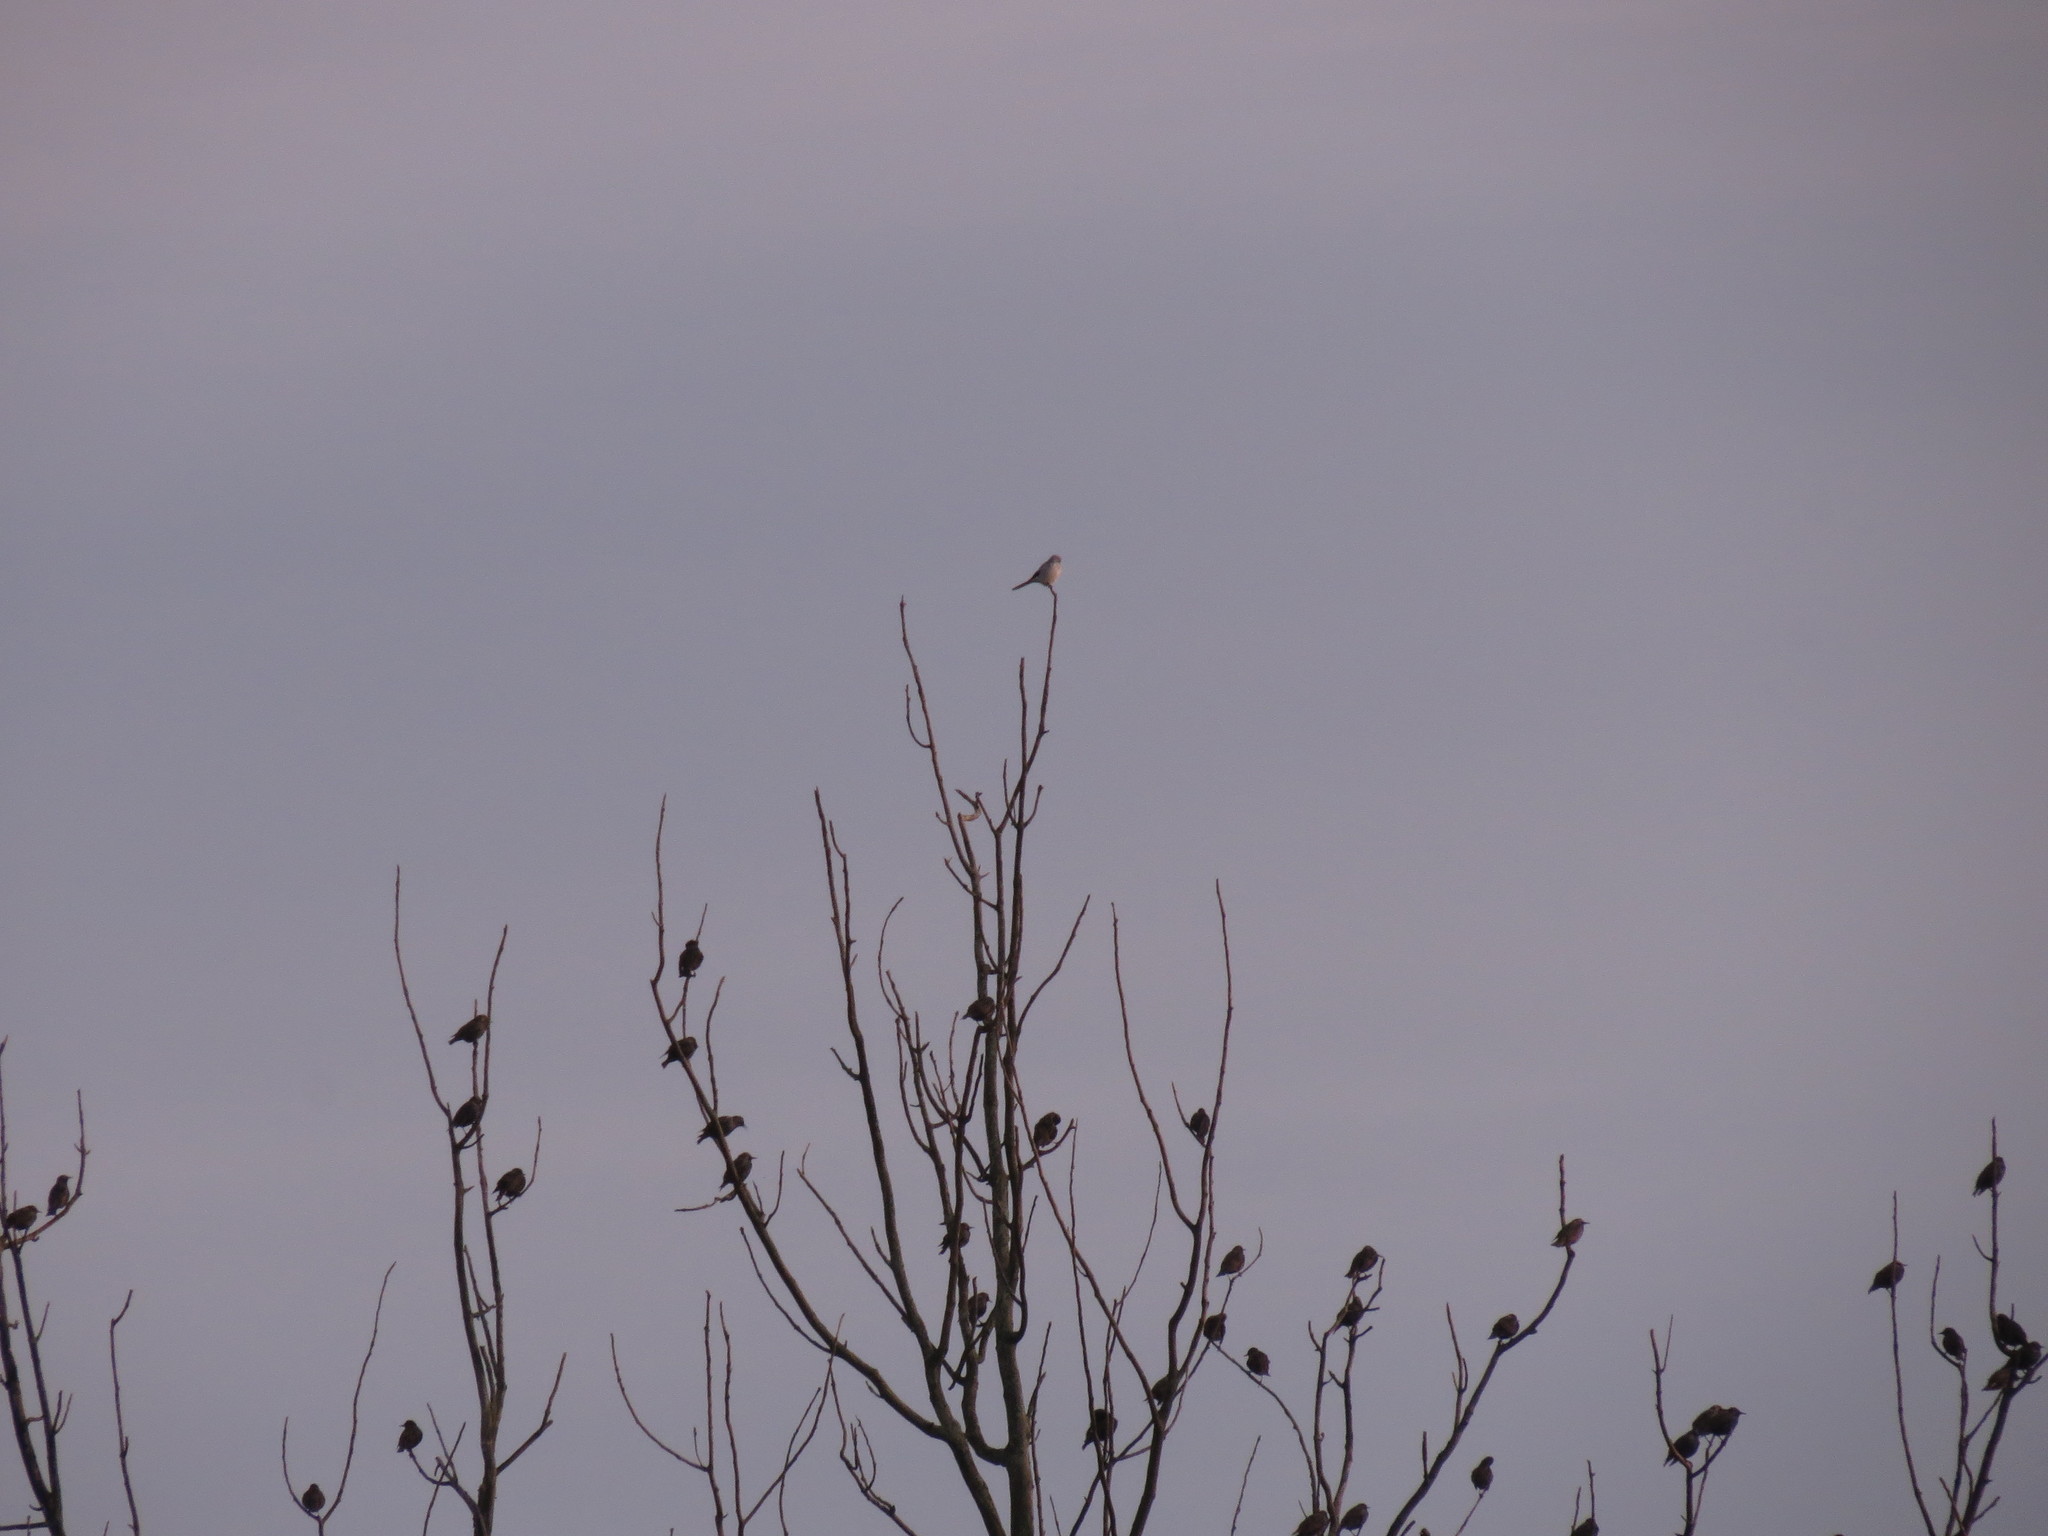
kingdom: Animalia
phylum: Chordata
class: Aves
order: Passeriformes
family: Laniidae
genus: Lanius
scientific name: Lanius borealis
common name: Northern shrike
